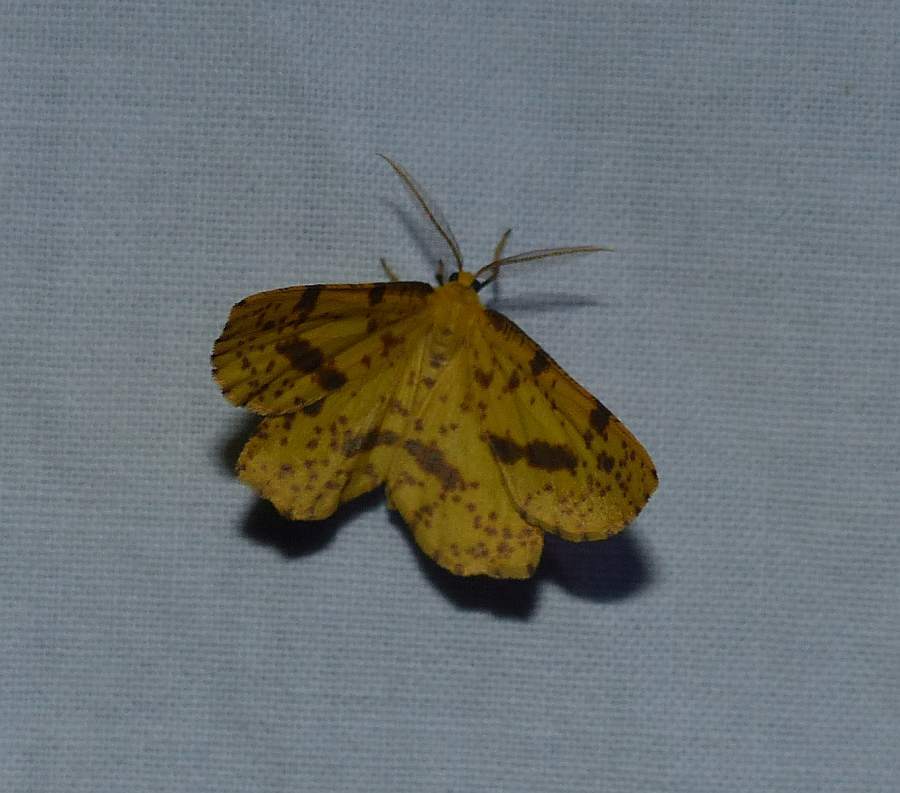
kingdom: Animalia
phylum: Arthropoda
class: Insecta
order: Lepidoptera
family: Geometridae
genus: Xanthotype
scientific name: Xanthotype
